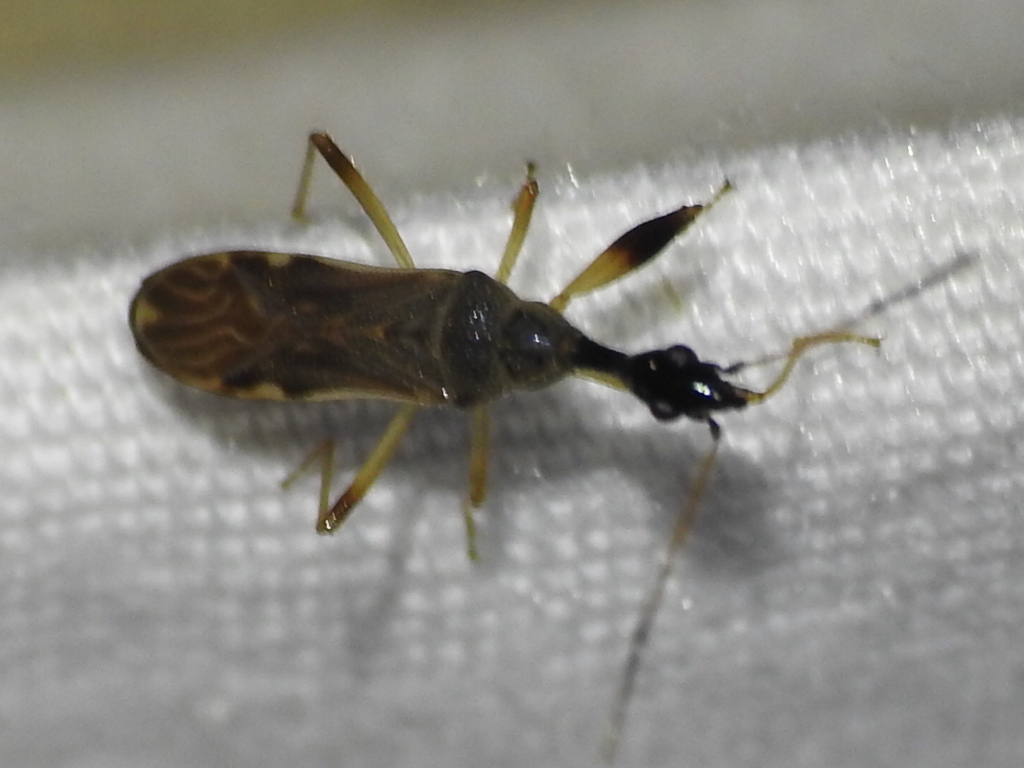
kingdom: Animalia
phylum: Arthropoda
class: Insecta
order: Hemiptera
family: Rhyparochromidae
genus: Myodocha
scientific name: Myodocha serripes
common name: Long-necked seed bug
